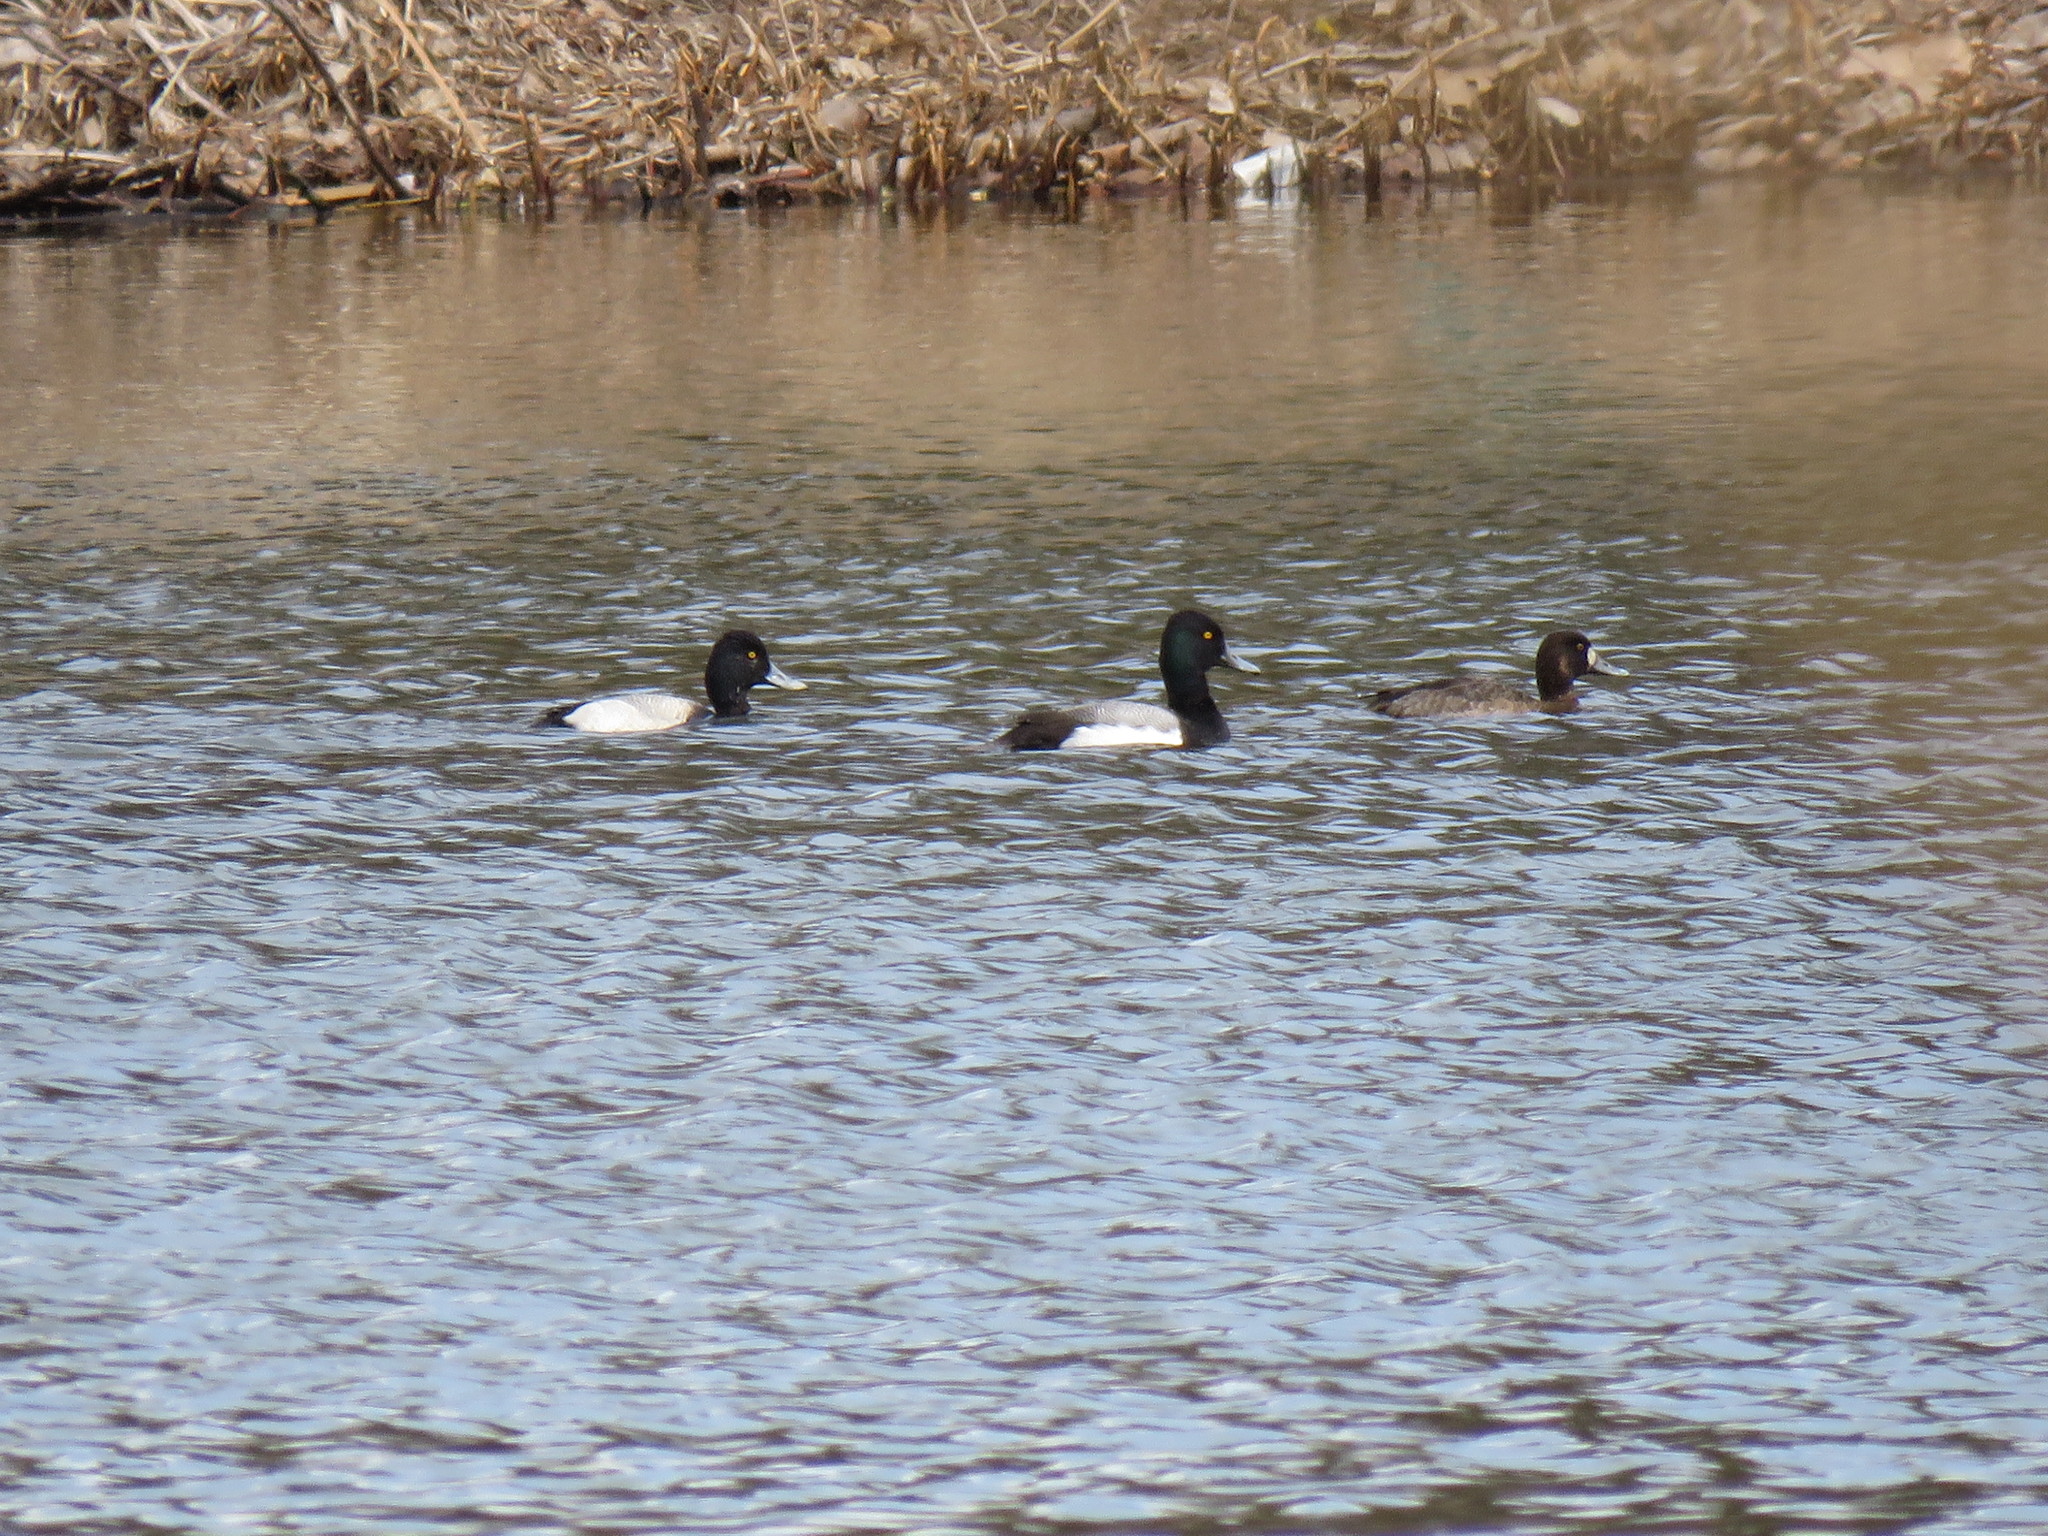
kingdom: Animalia
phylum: Chordata
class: Aves
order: Anseriformes
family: Anatidae
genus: Aythya
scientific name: Aythya affinis
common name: Lesser scaup
